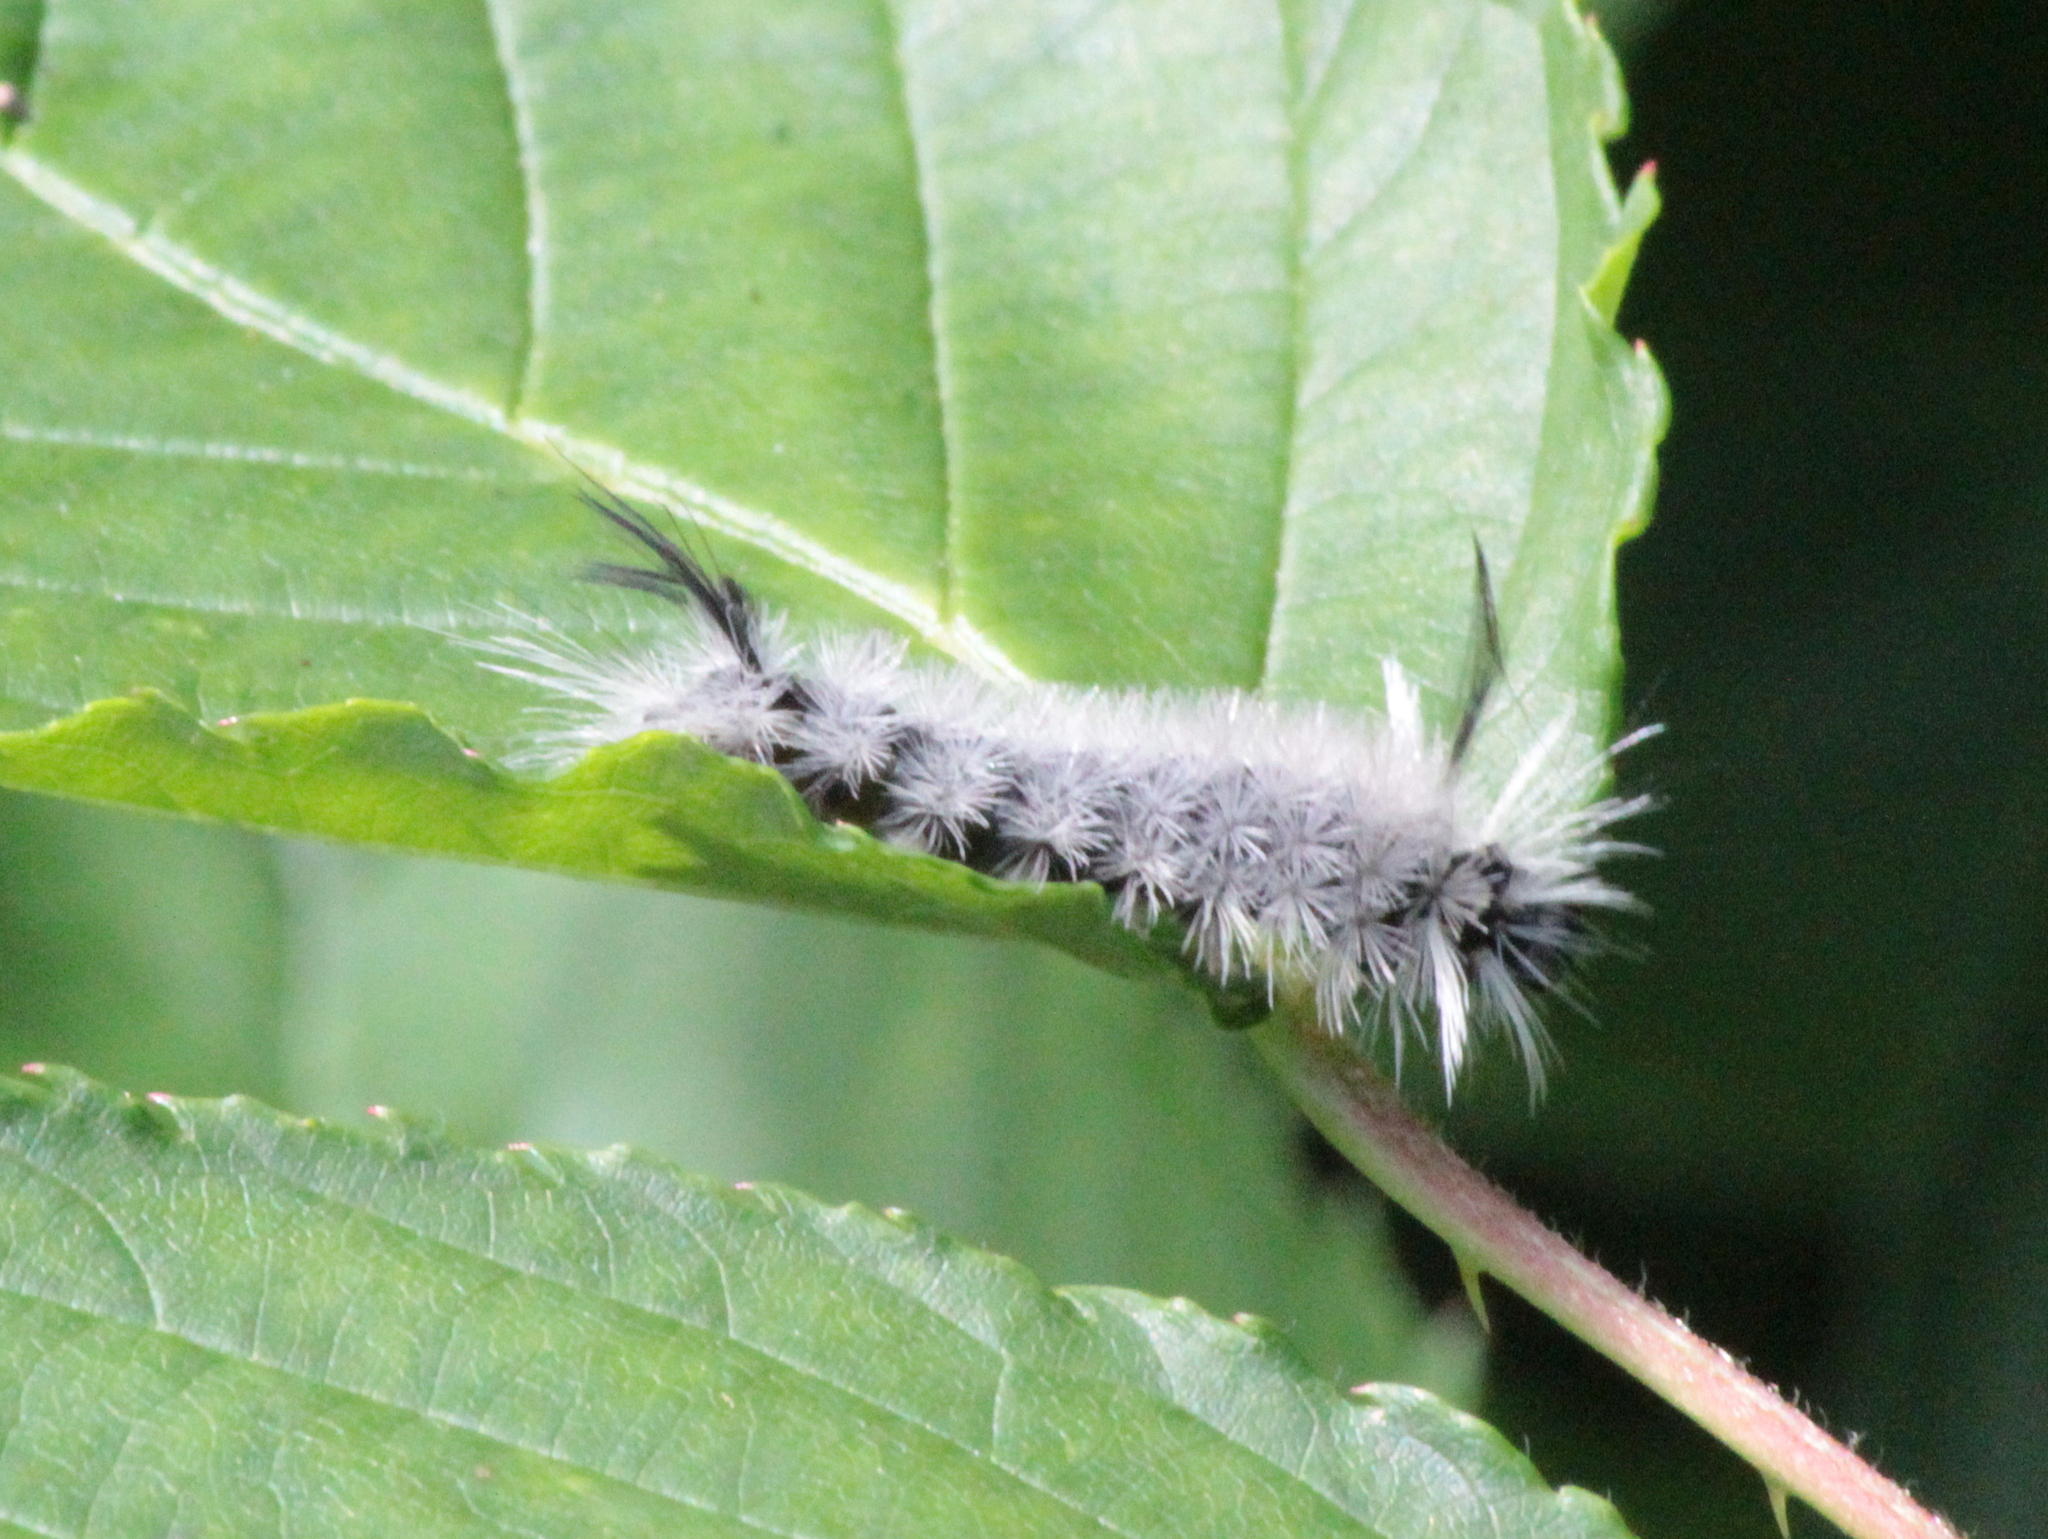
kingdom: Animalia
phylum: Arthropoda
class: Insecta
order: Lepidoptera
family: Erebidae
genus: Halysidota
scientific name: Halysidota tessellaris
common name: Banded tussock moth
